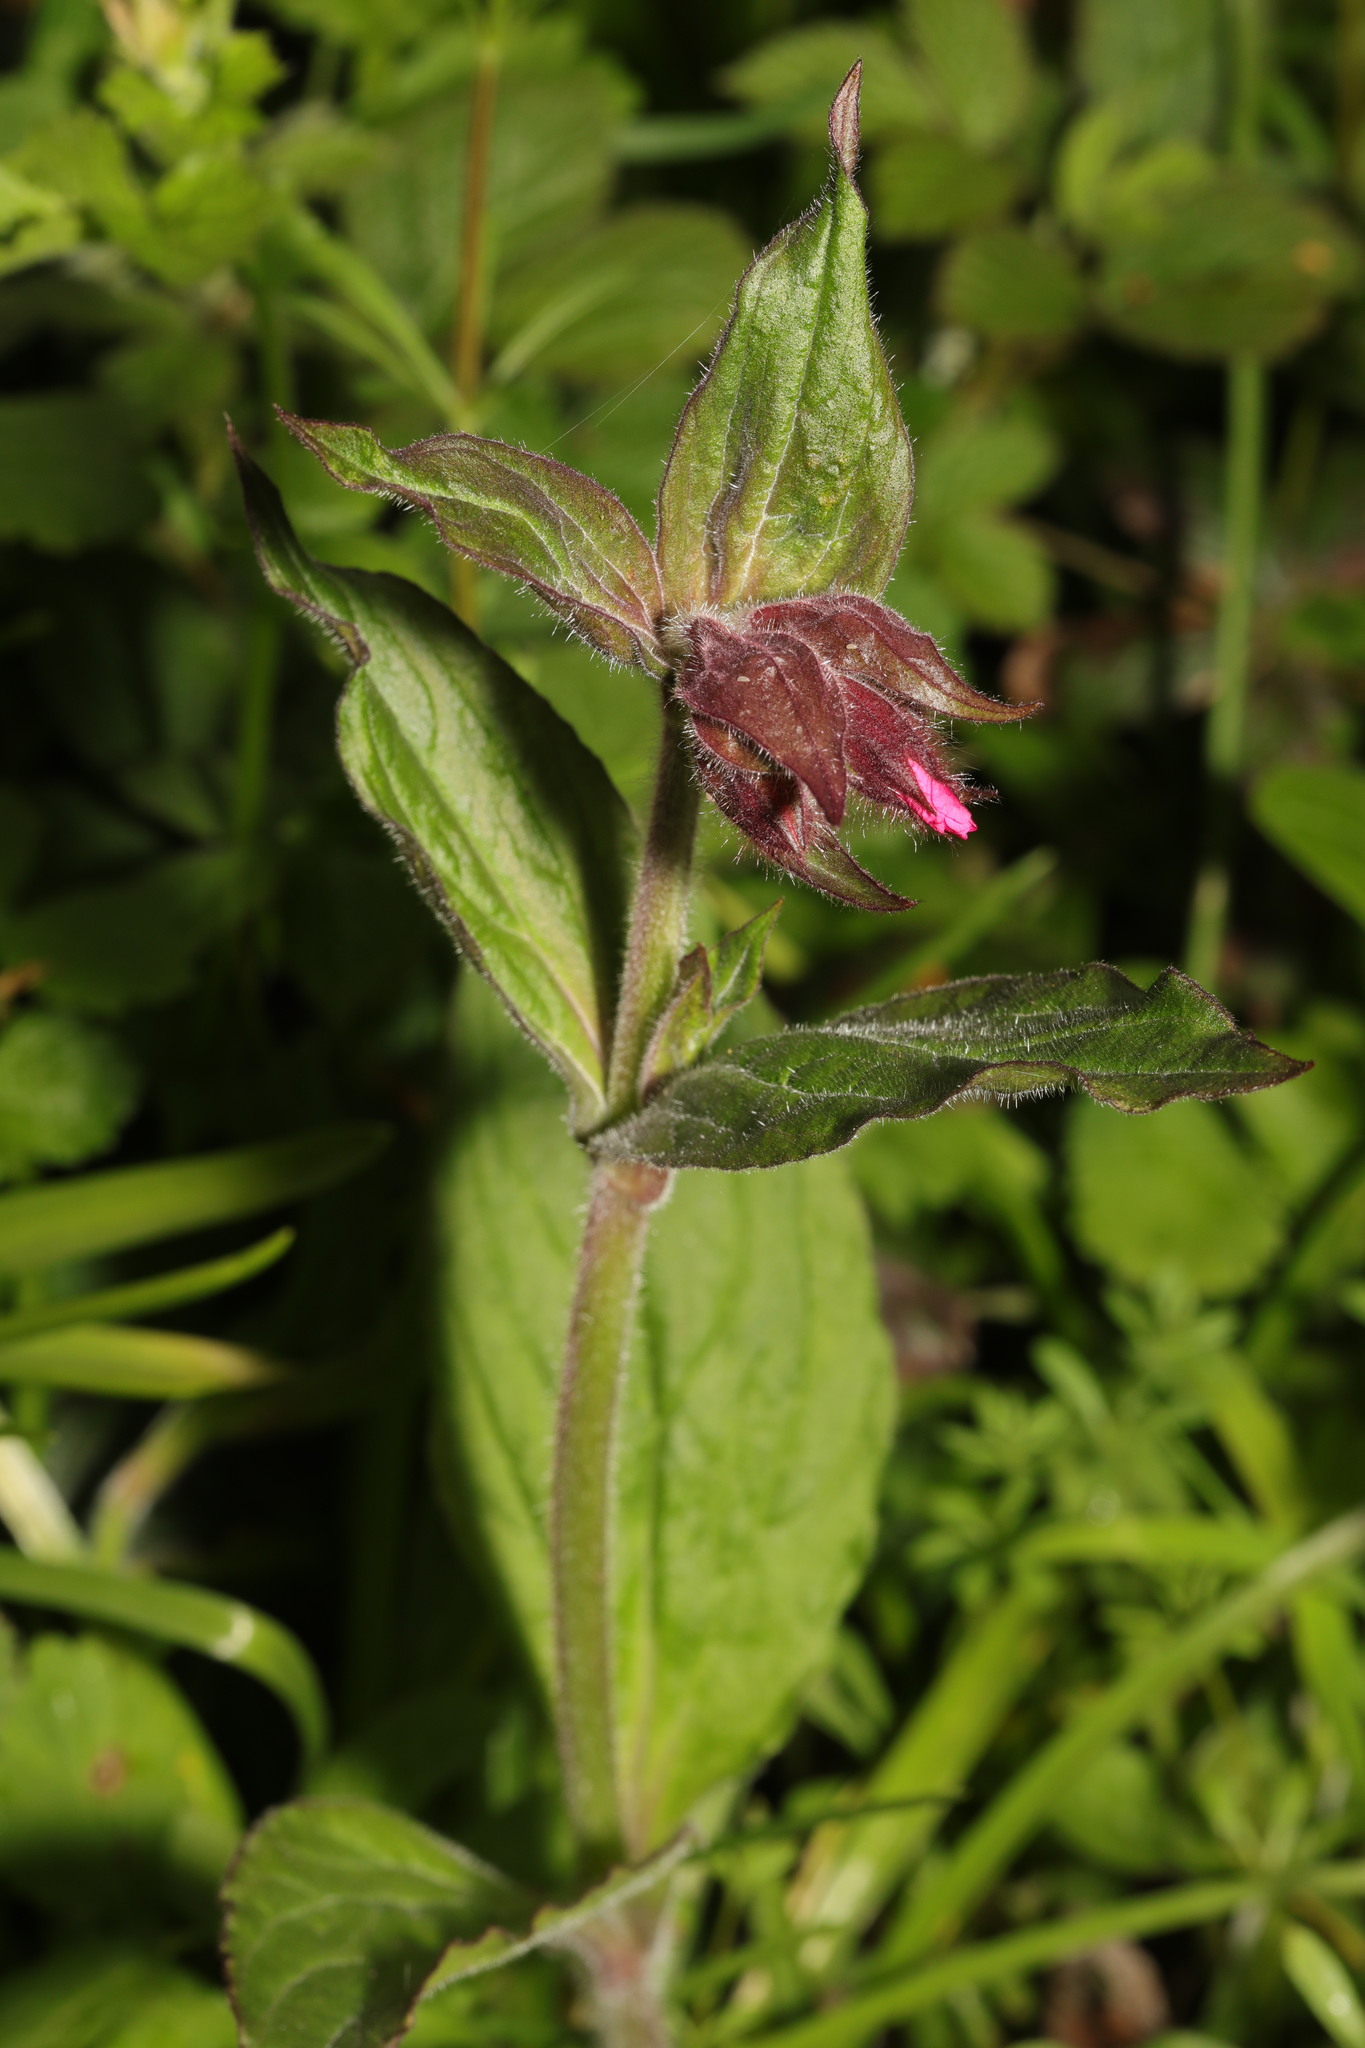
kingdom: Plantae
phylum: Tracheophyta
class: Magnoliopsida
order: Caryophyllales
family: Caryophyllaceae
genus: Silene
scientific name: Silene dioica
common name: Red campion
